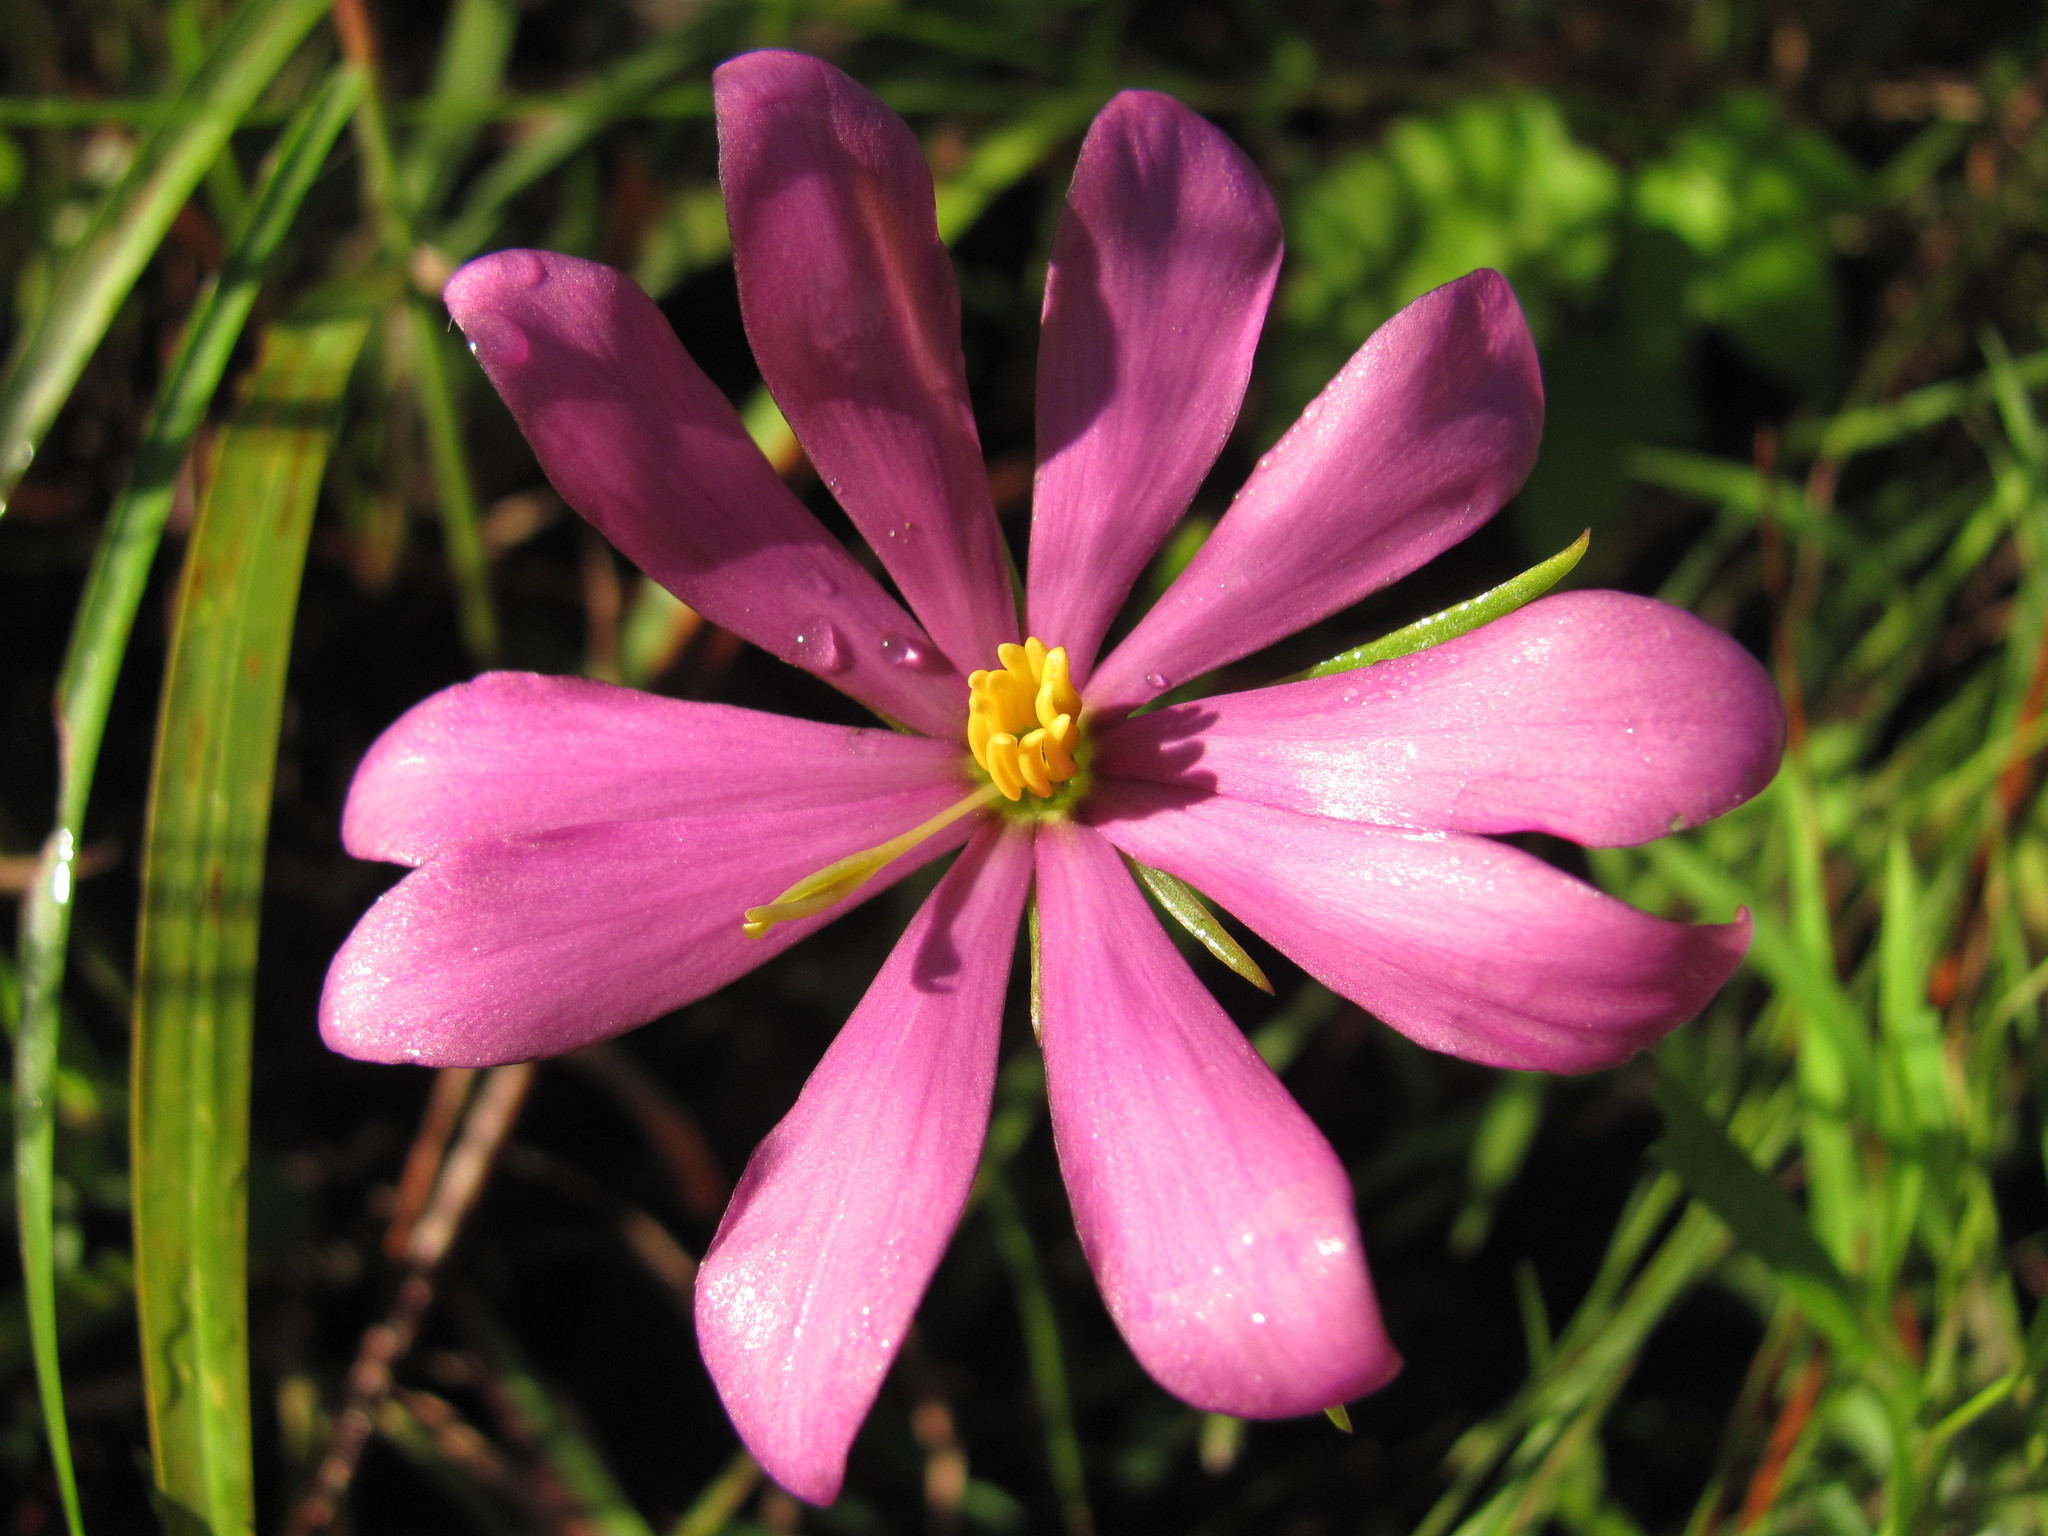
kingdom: Plantae
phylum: Tracheophyta
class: Magnoliopsida
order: Gentianales
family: Gentianaceae
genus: Sabatia
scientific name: Sabatia gentianoides
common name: Pinewoods rose-gentian
